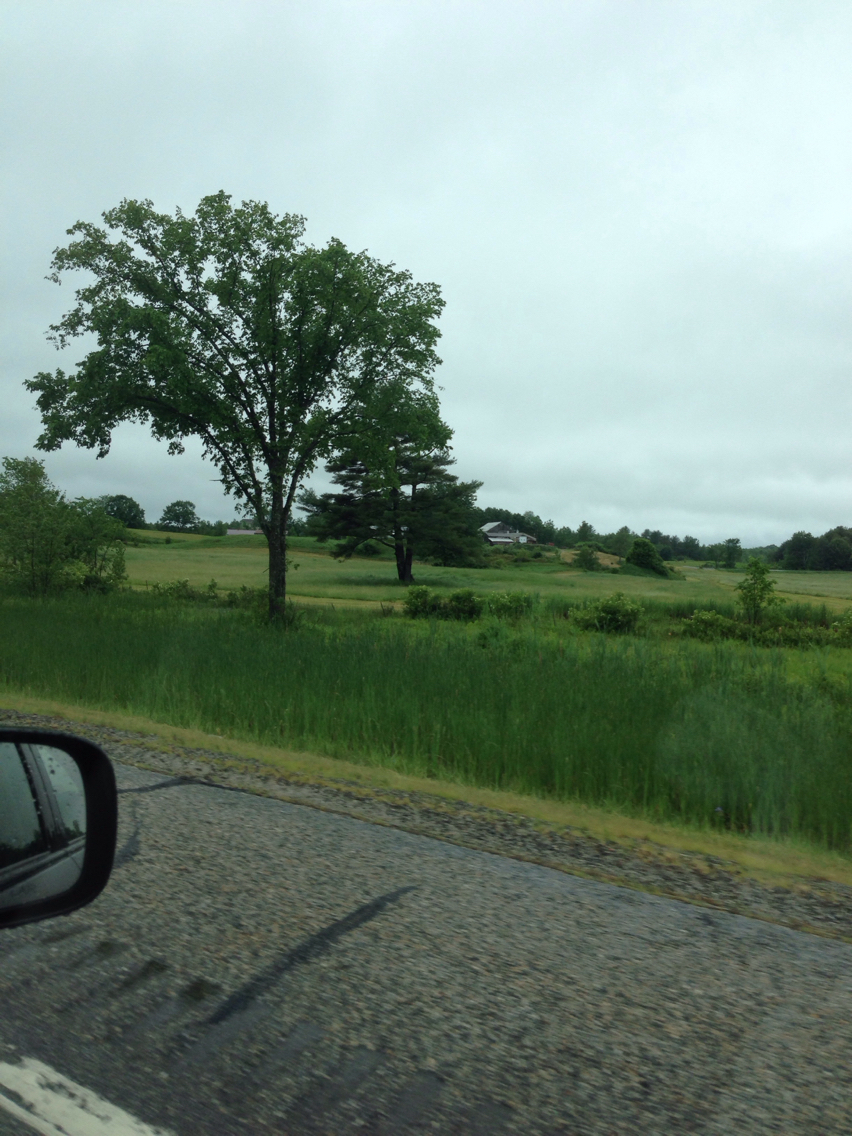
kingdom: Plantae
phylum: Tracheophyta
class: Magnoliopsida
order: Rosales
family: Ulmaceae
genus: Ulmus
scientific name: Ulmus americana
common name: American elm
